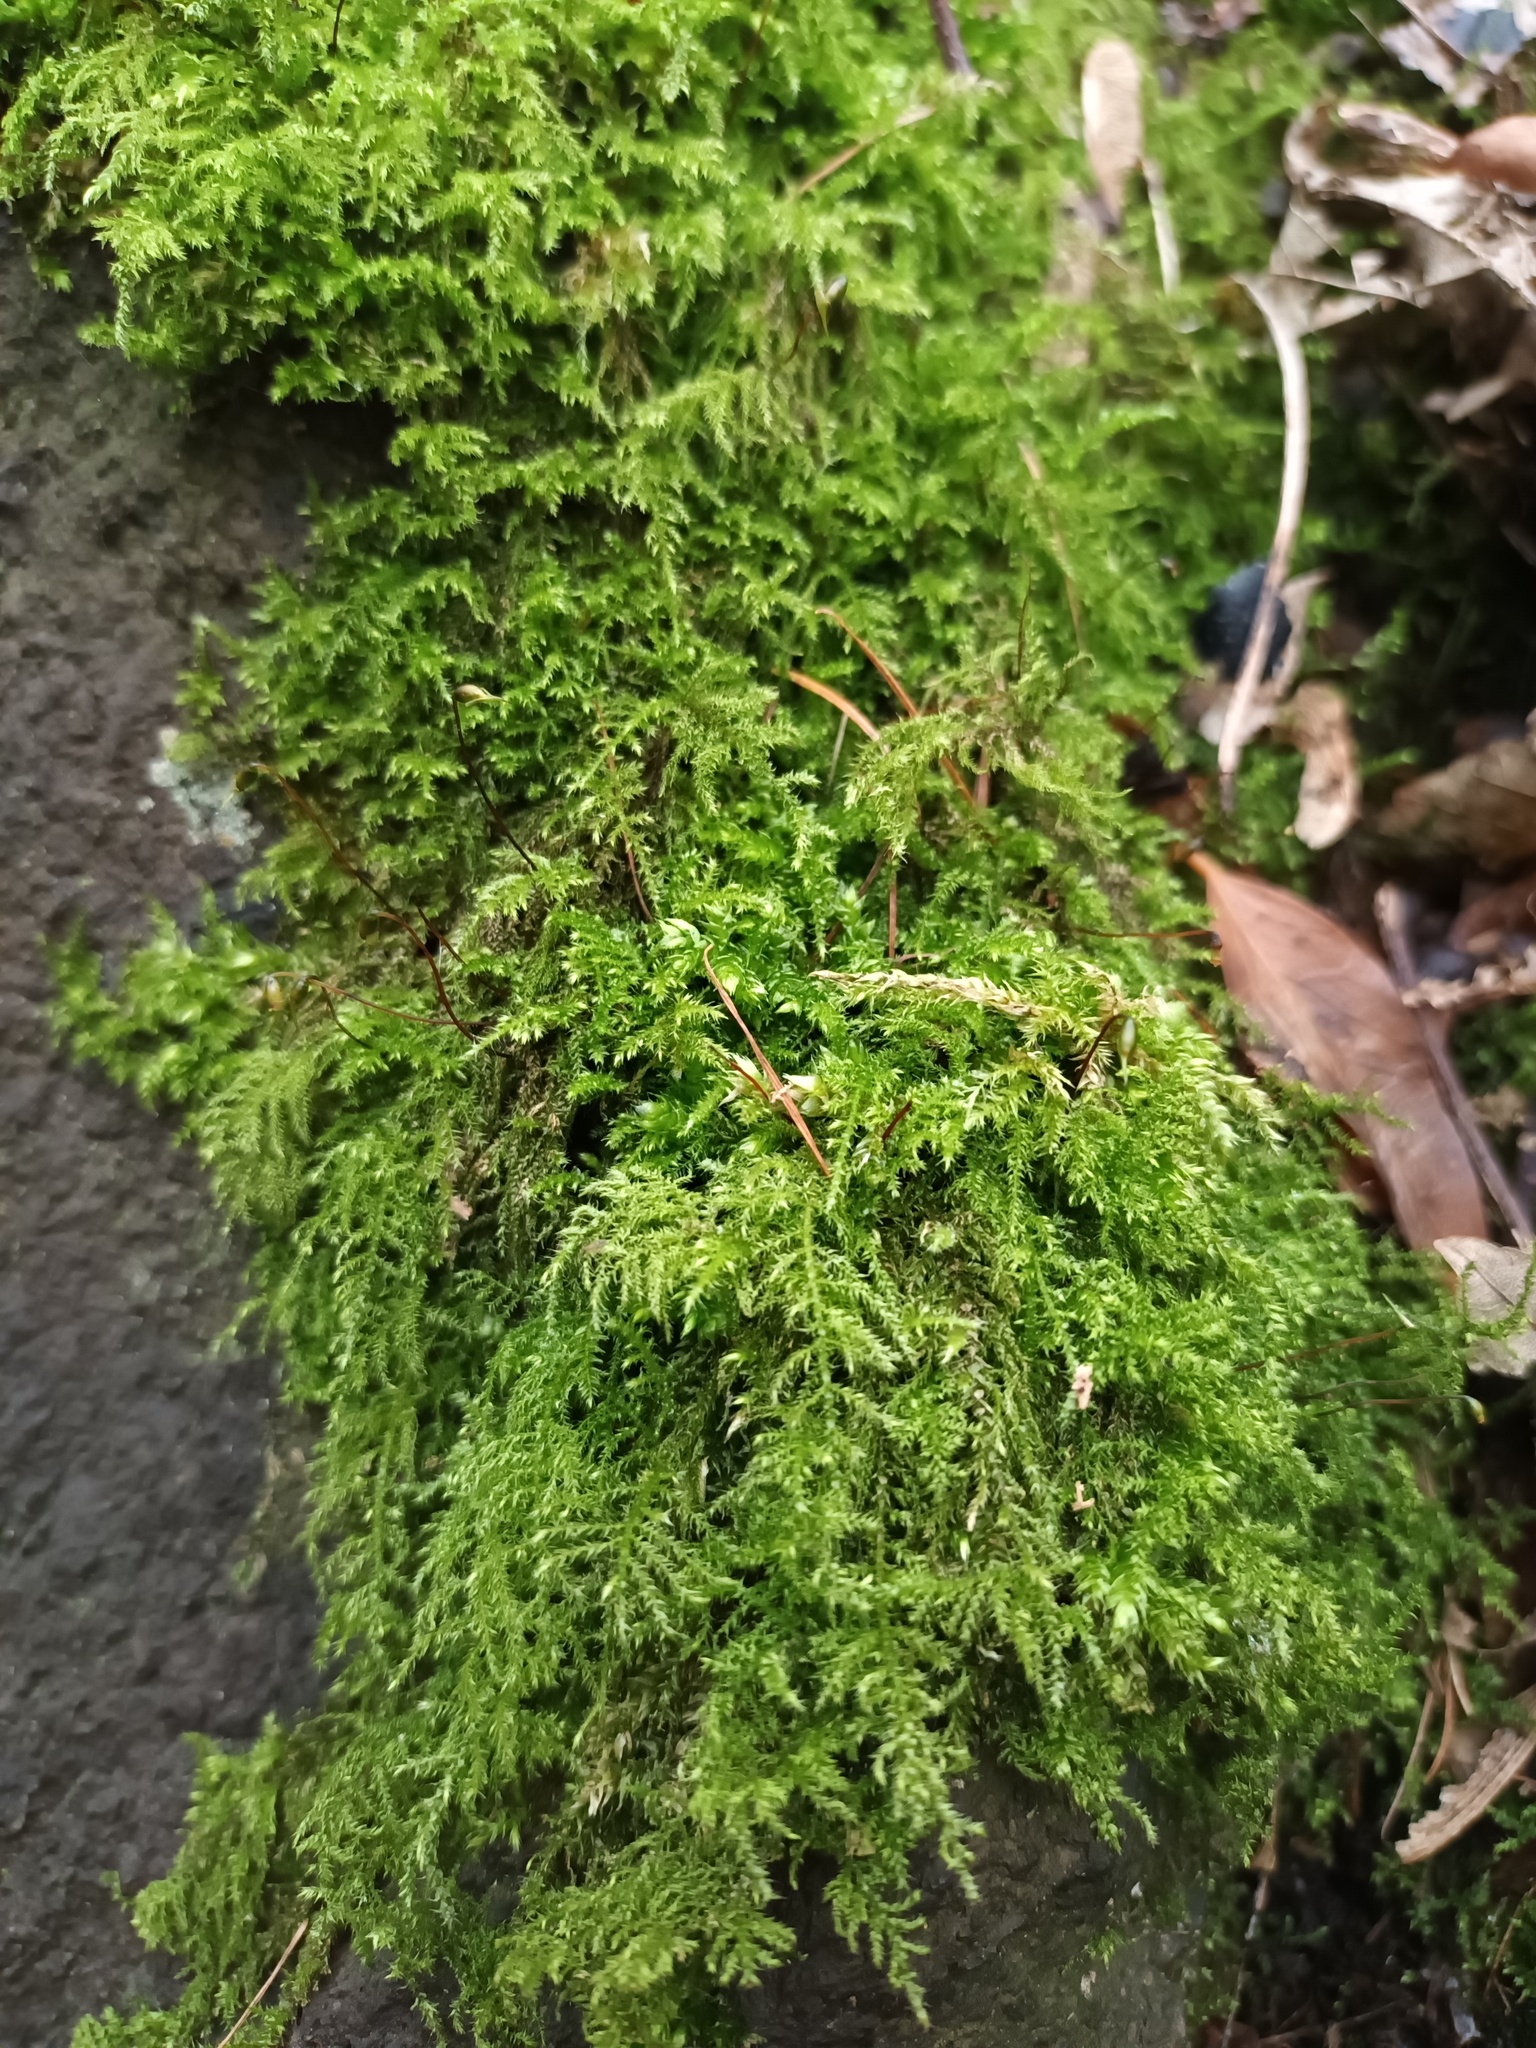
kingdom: Plantae
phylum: Bryophyta
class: Bryopsida
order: Hypnales
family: Brachytheciaceae
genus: Kindbergia
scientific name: Kindbergia praelonga
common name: Slender beaked moss
